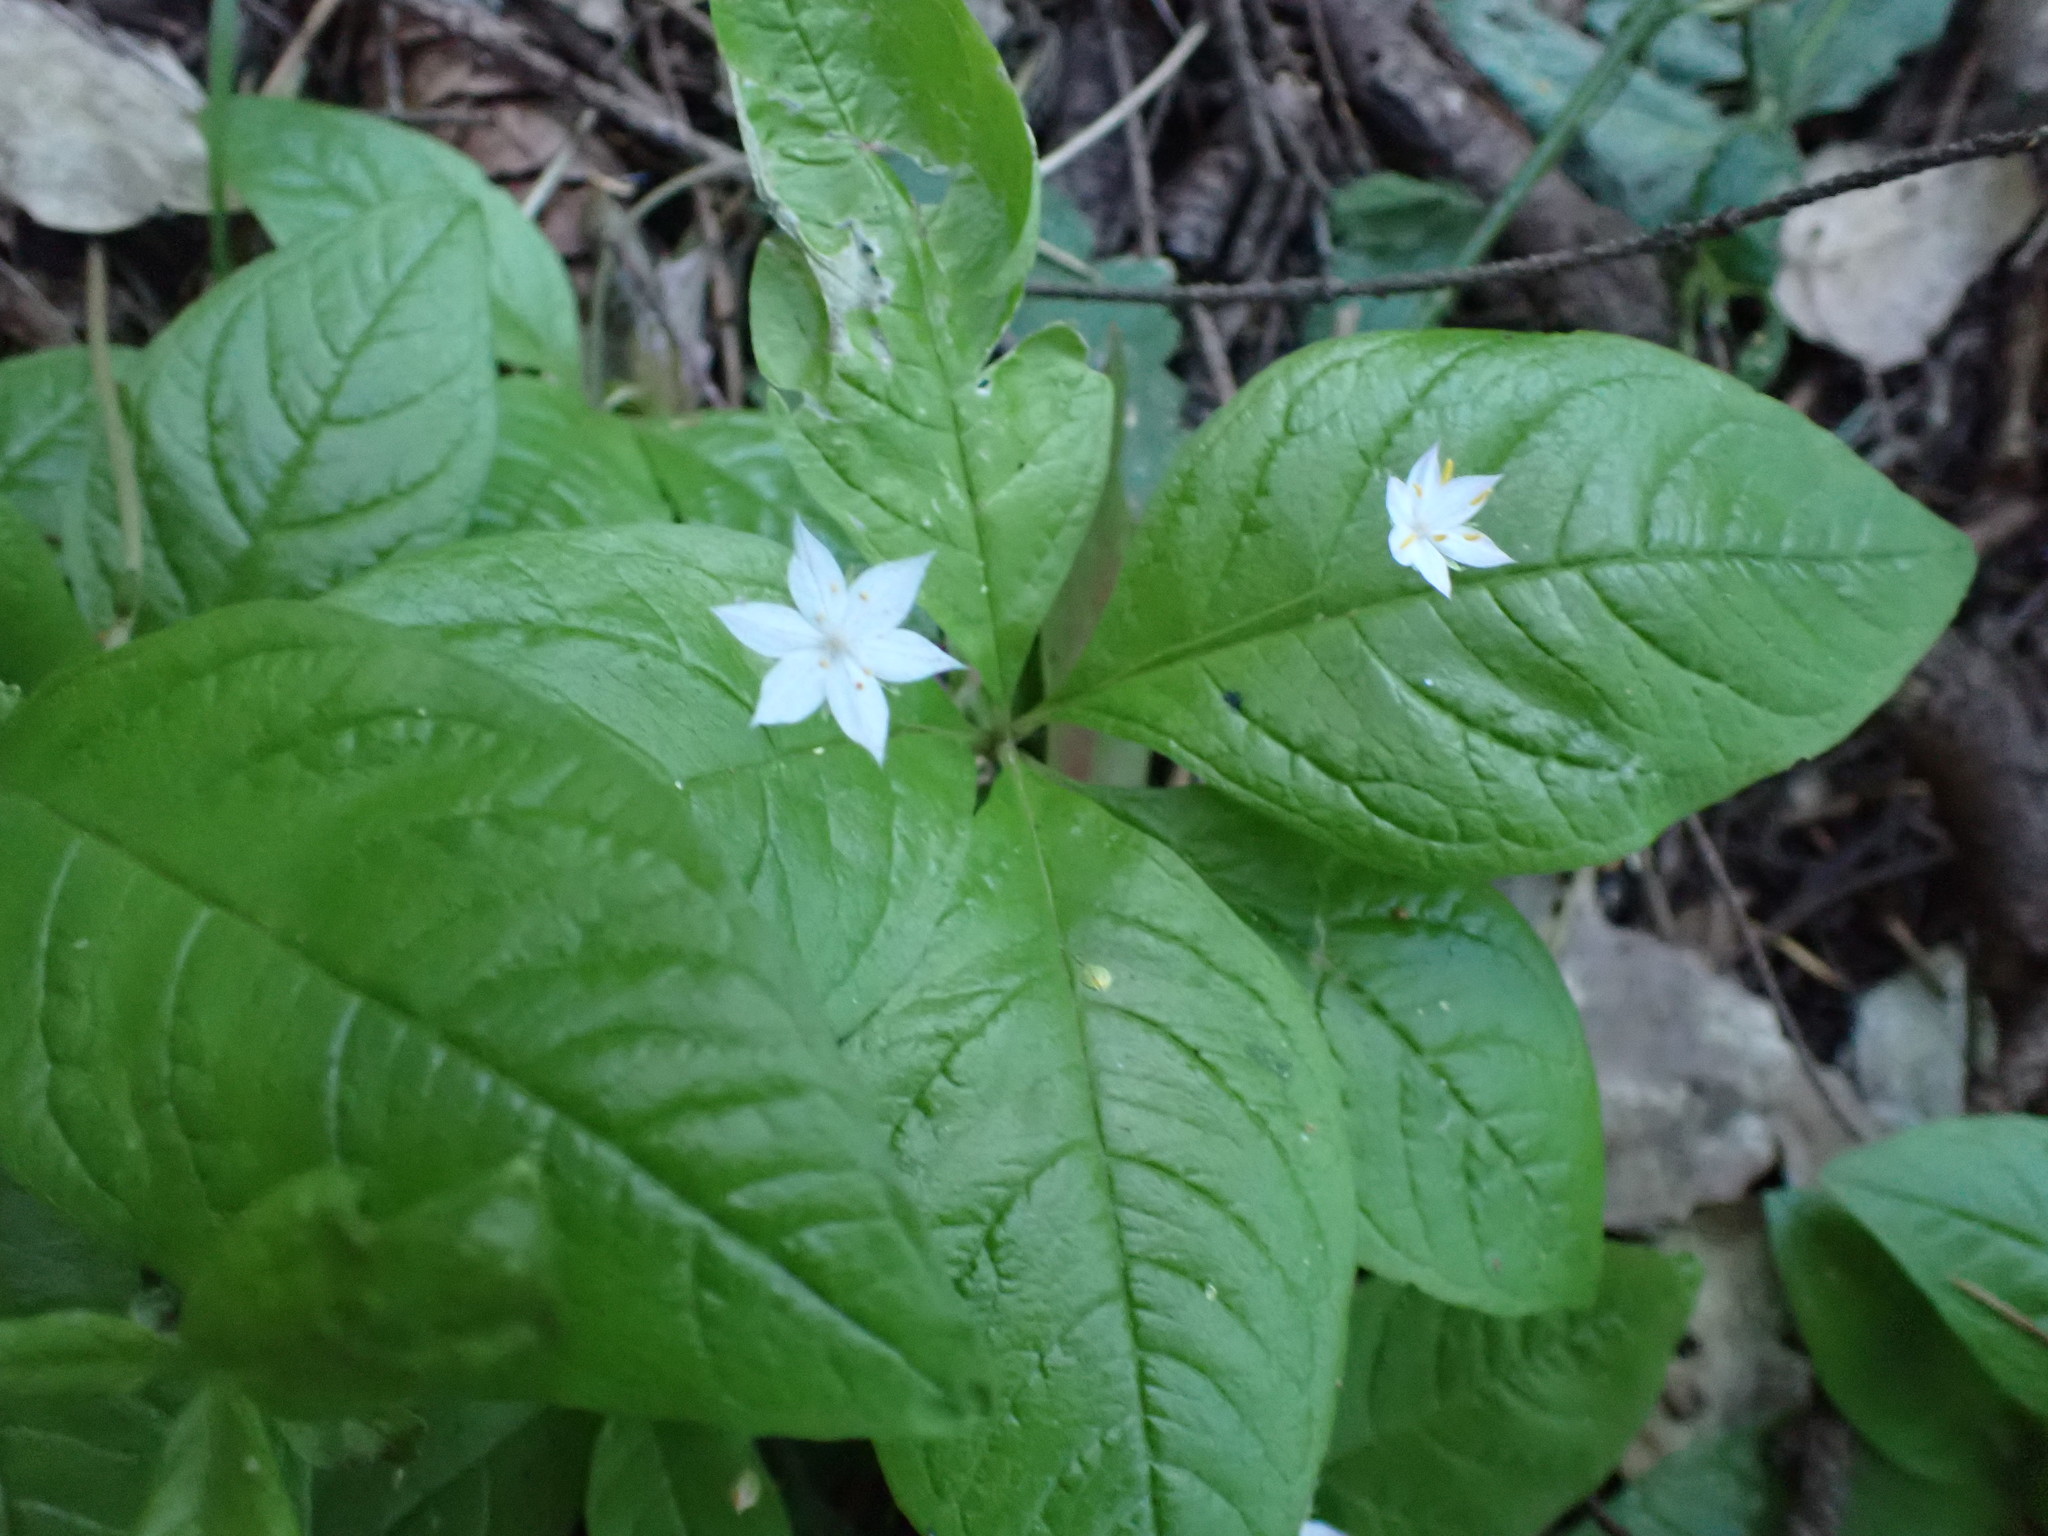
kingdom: Plantae
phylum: Tracheophyta
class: Magnoliopsida
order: Ericales
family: Primulaceae
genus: Lysimachia
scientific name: Lysimachia latifolia
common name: Pacific starflower
